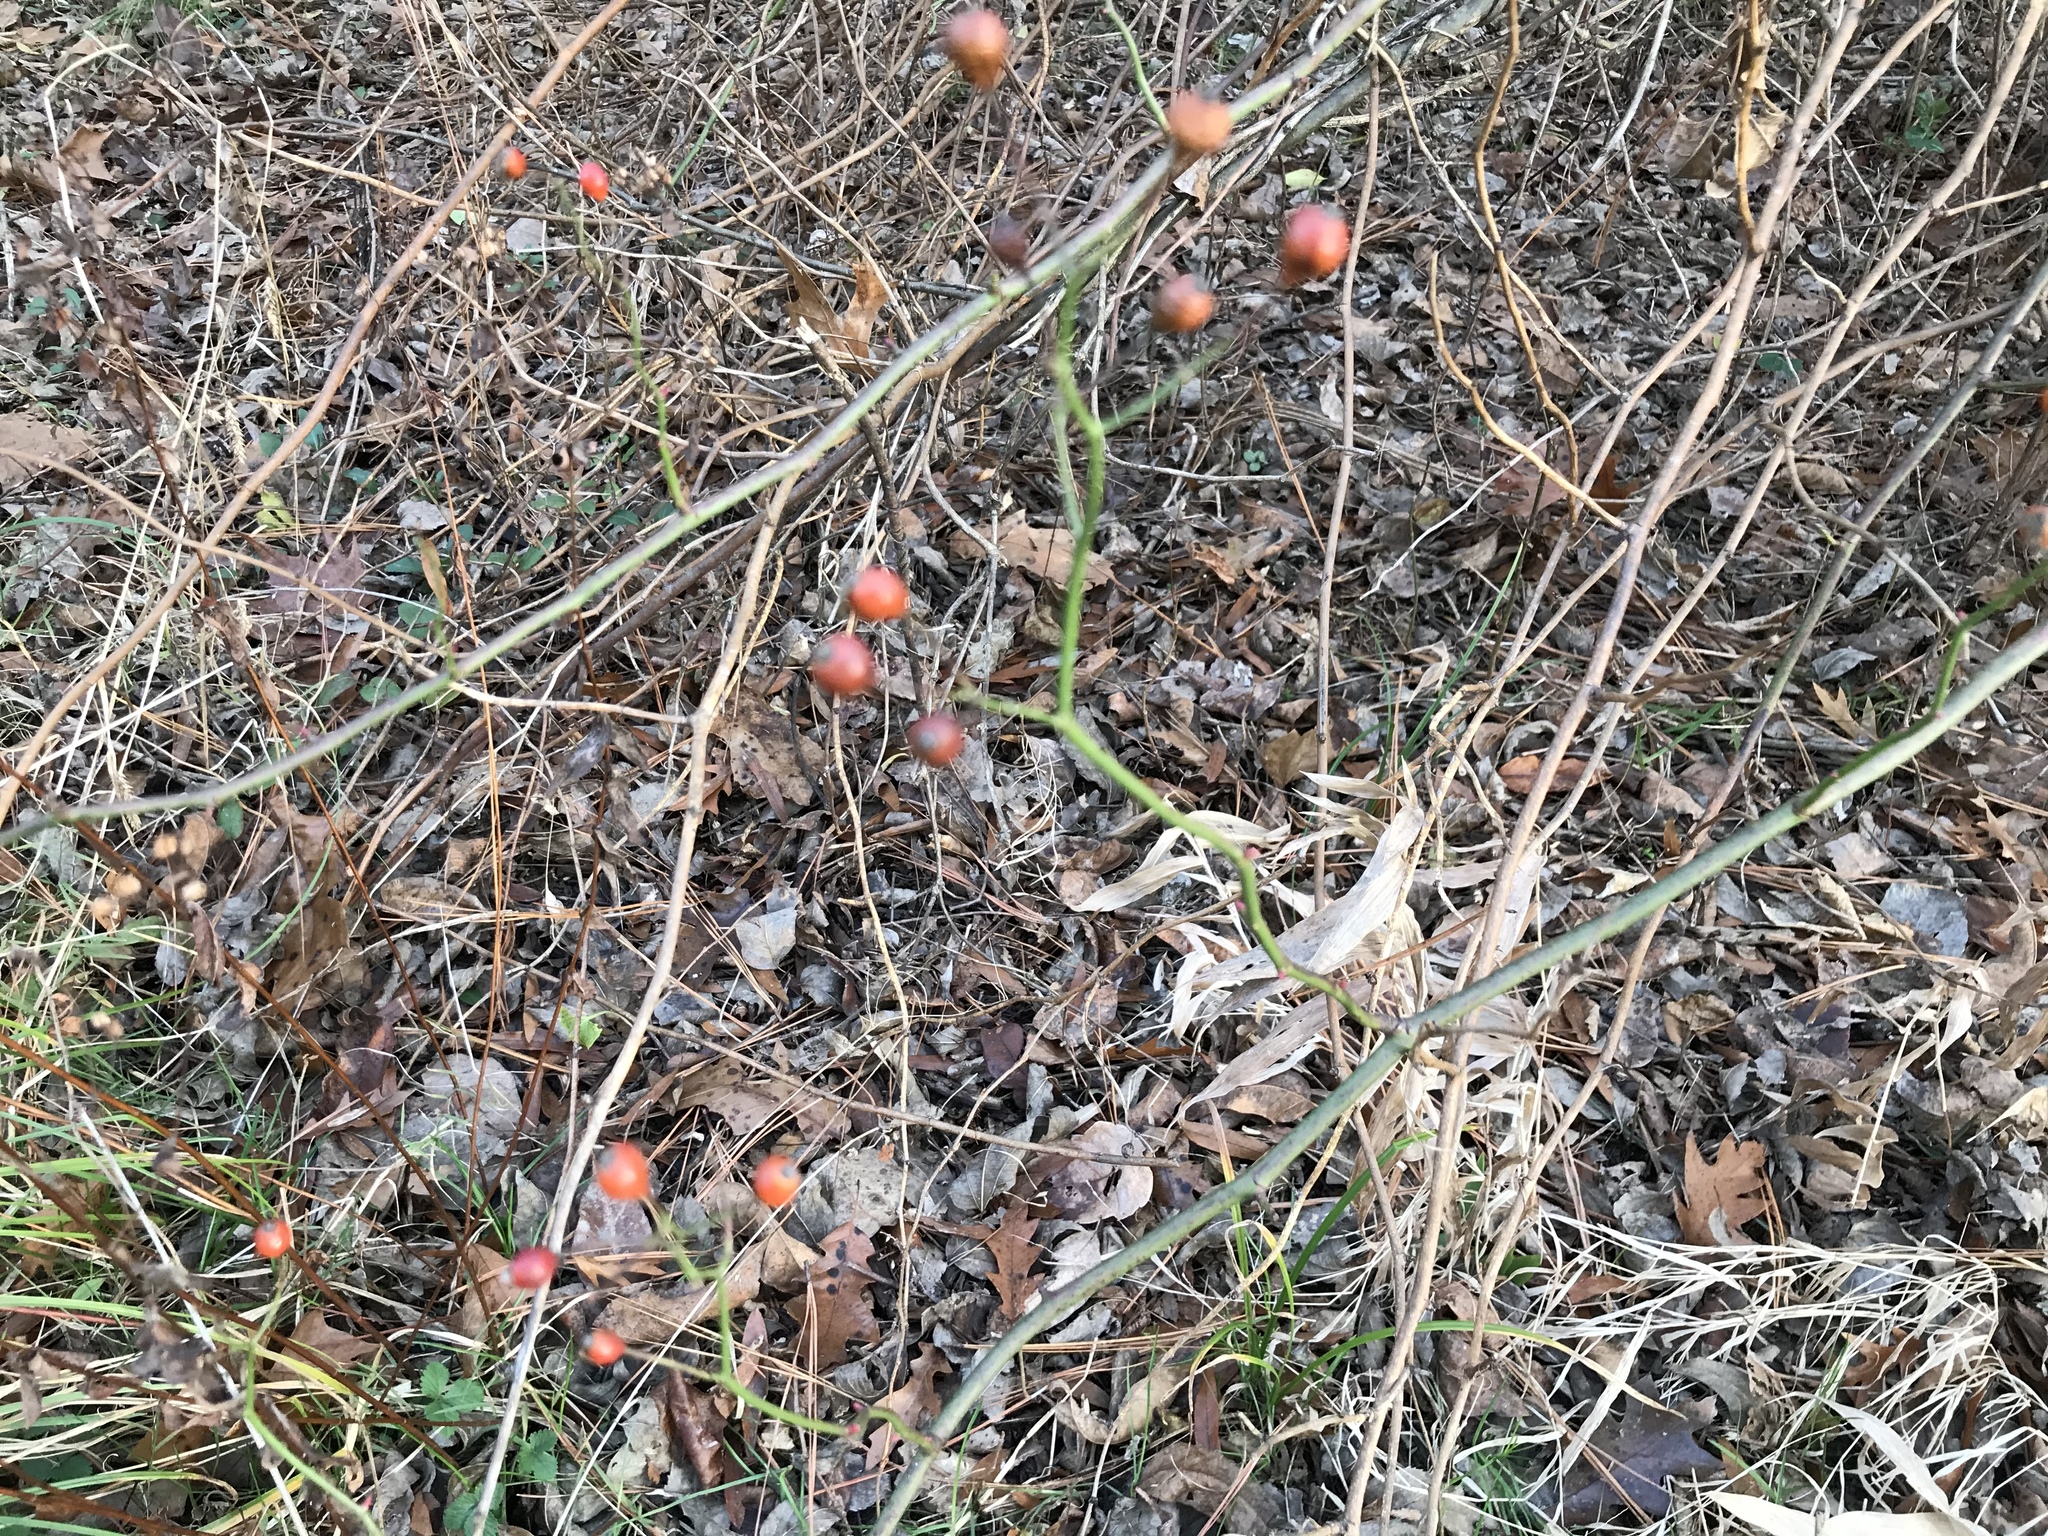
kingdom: Plantae
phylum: Tracheophyta
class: Magnoliopsida
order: Rosales
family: Rosaceae
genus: Rosa
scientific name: Rosa multiflora
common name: Multiflora rose
